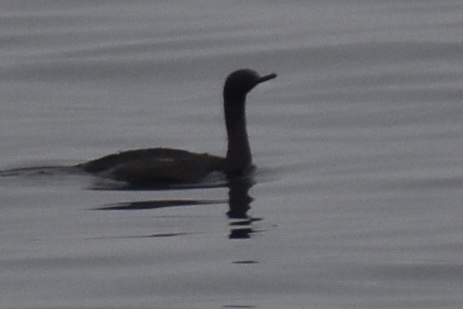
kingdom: Animalia
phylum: Chordata
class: Aves
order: Suliformes
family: Phalacrocoracidae
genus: Phalacrocorax
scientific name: Phalacrocorax pelagicus
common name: Pelagic cormorant
